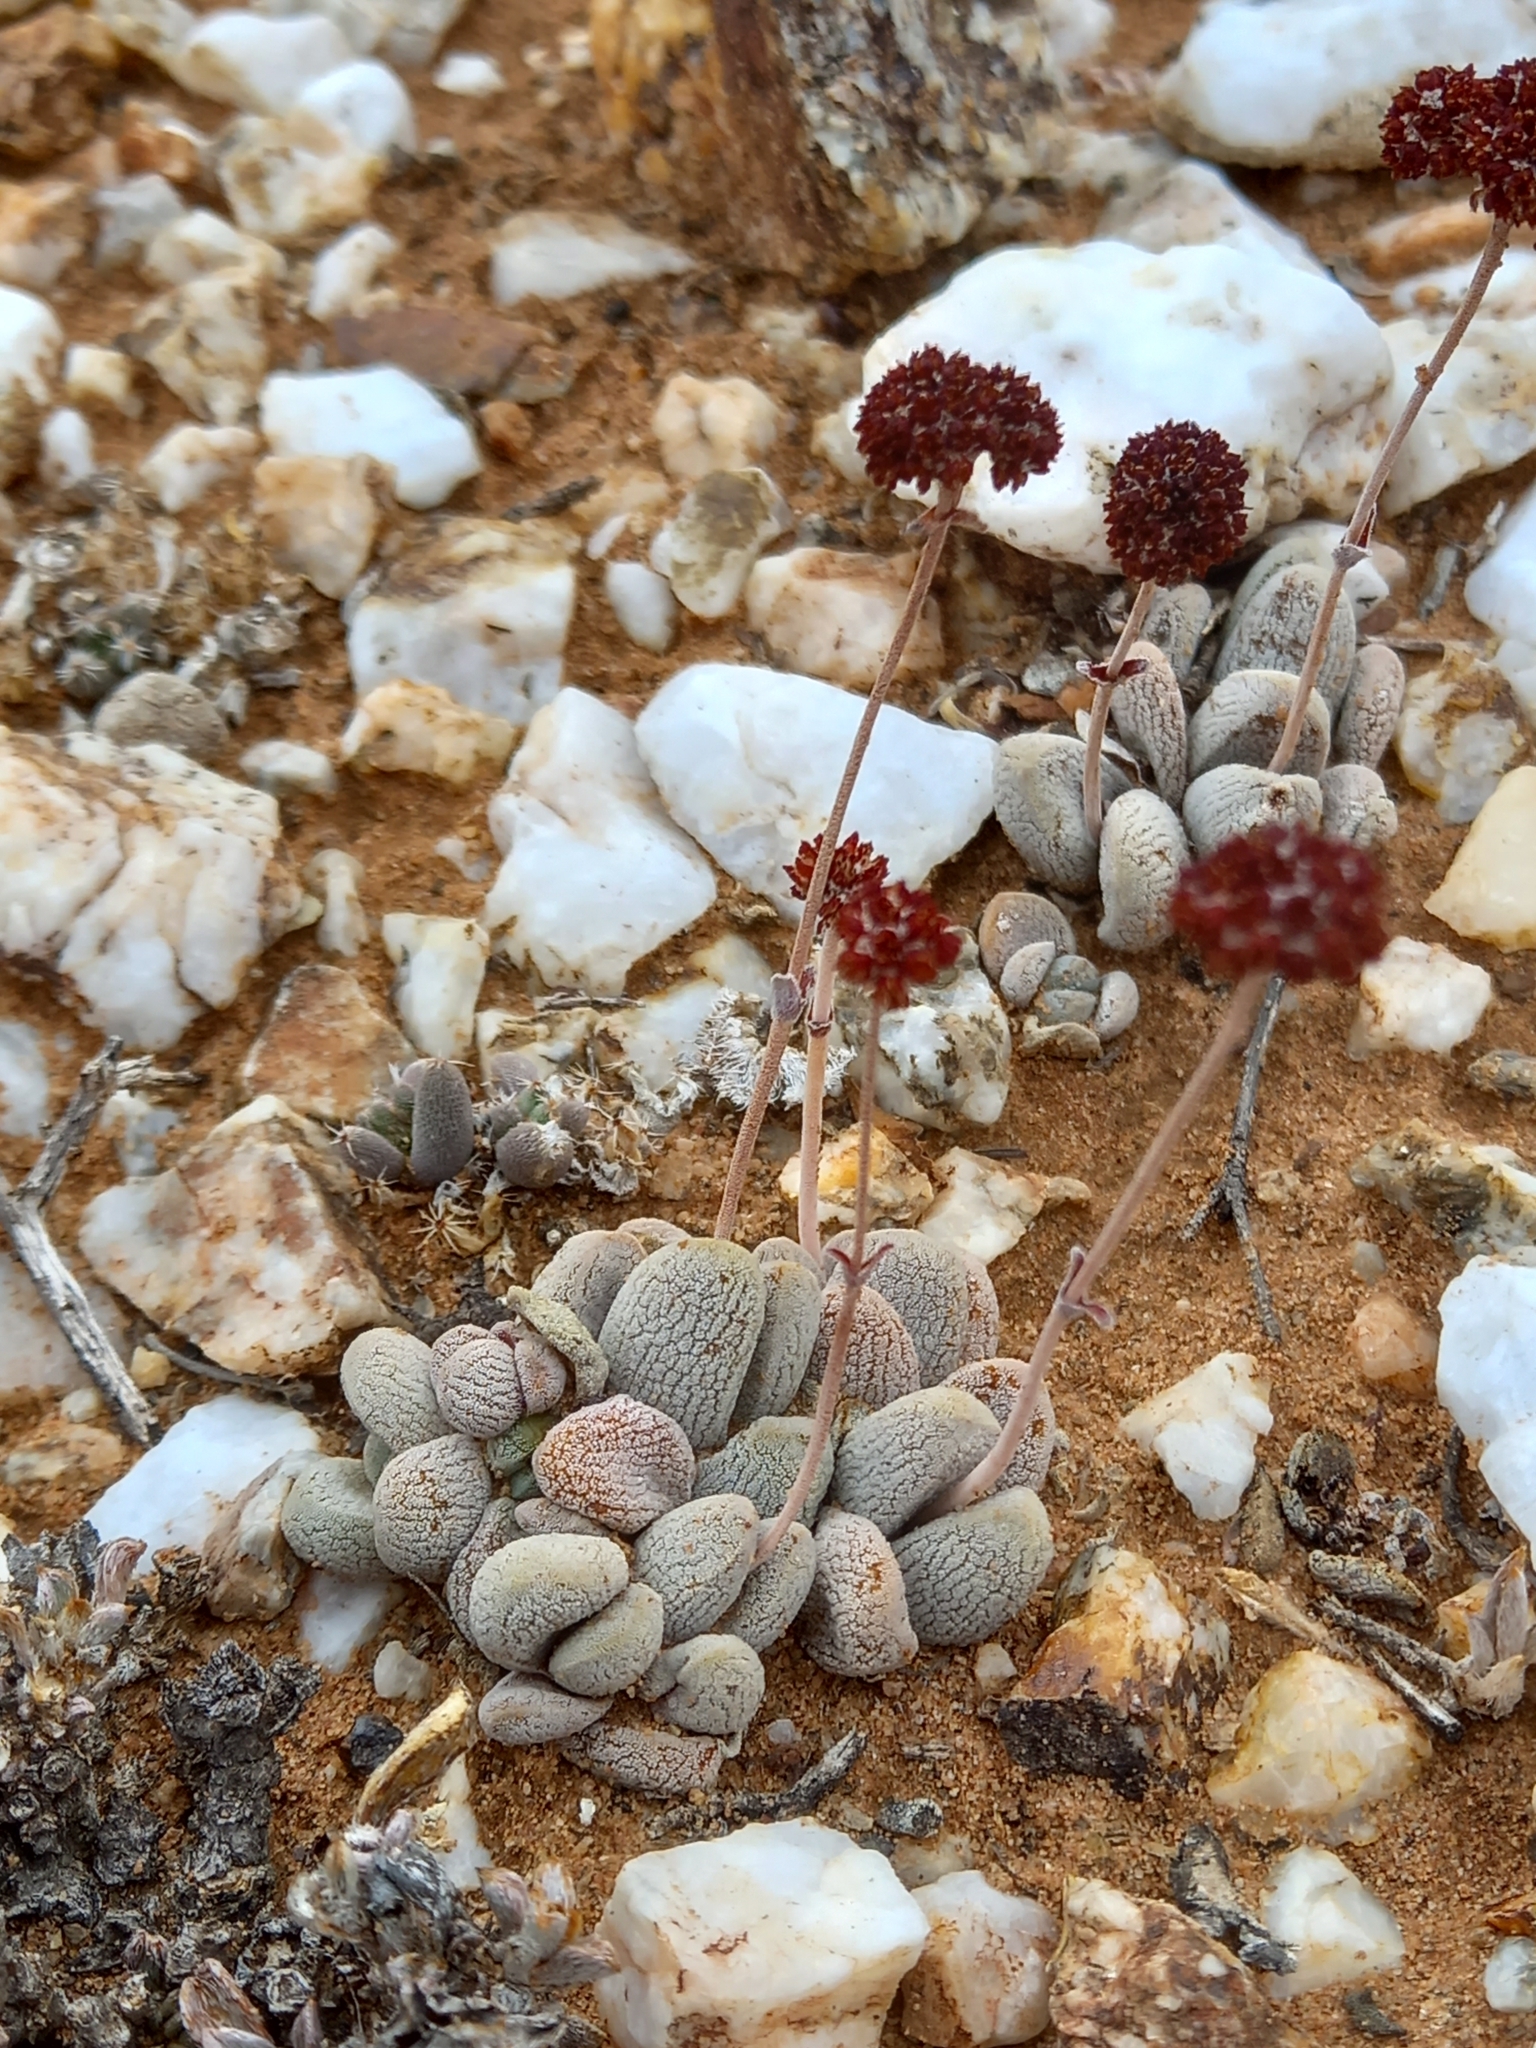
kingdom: Plantae
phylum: Tracheophyta
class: Magnoliopsida
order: Saxifragales
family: Crassulaceae
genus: Crassula
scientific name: Crassula tecta
